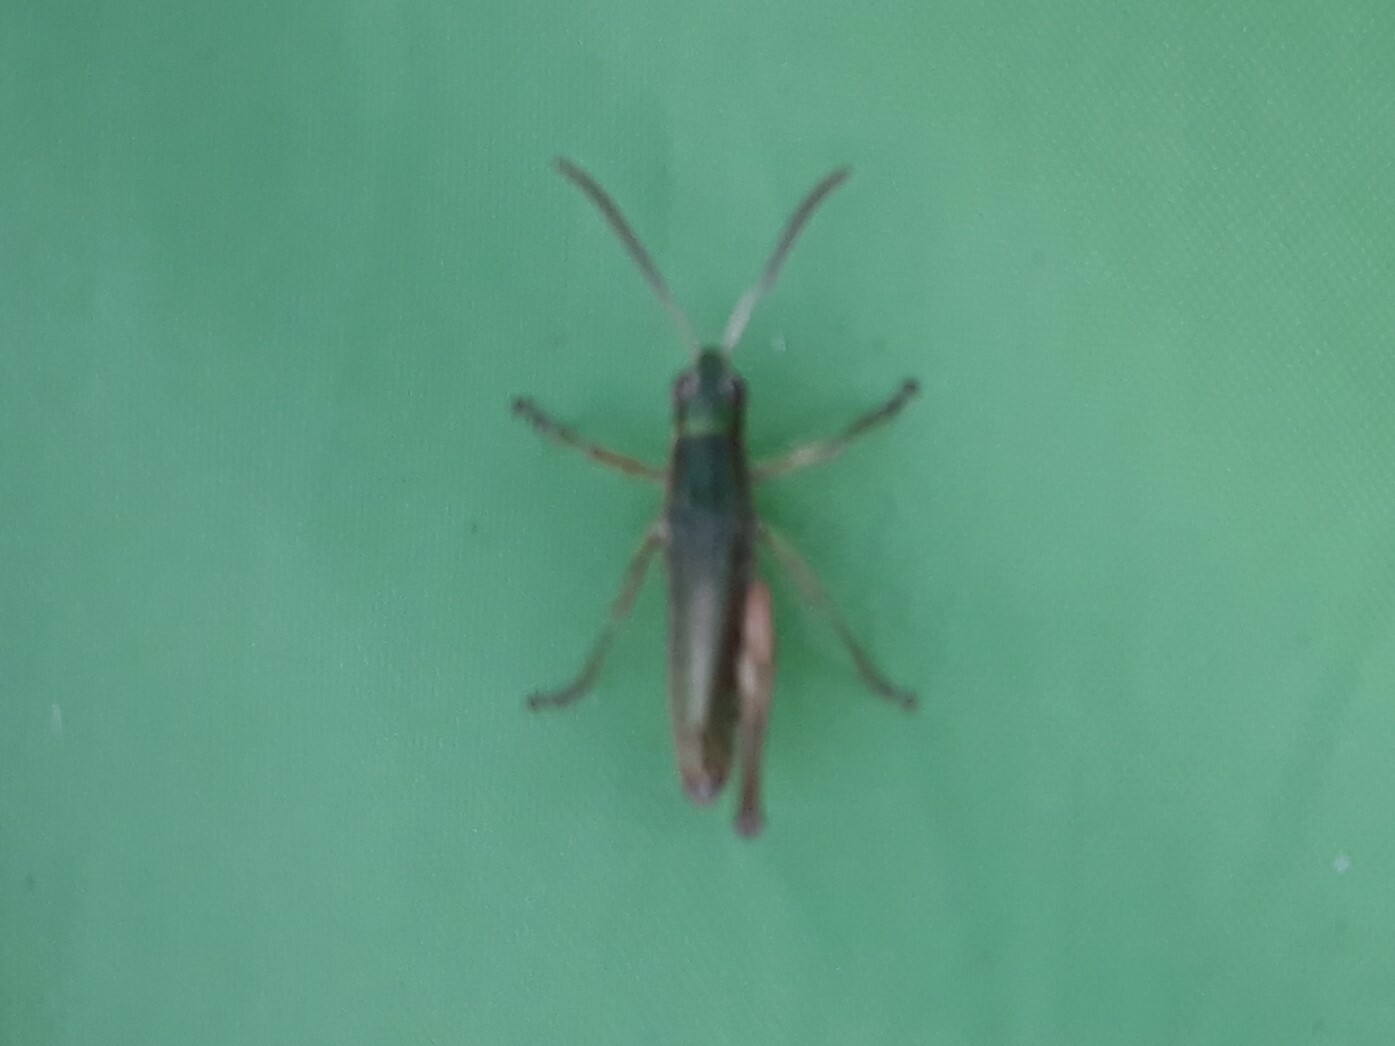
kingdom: Animalia
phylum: Arthropoda
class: Insecta
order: Orthoptera
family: Acrididae
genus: Pseudochorthippus
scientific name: Pseudochorthippus parallelus
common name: Meadow grasshopper
